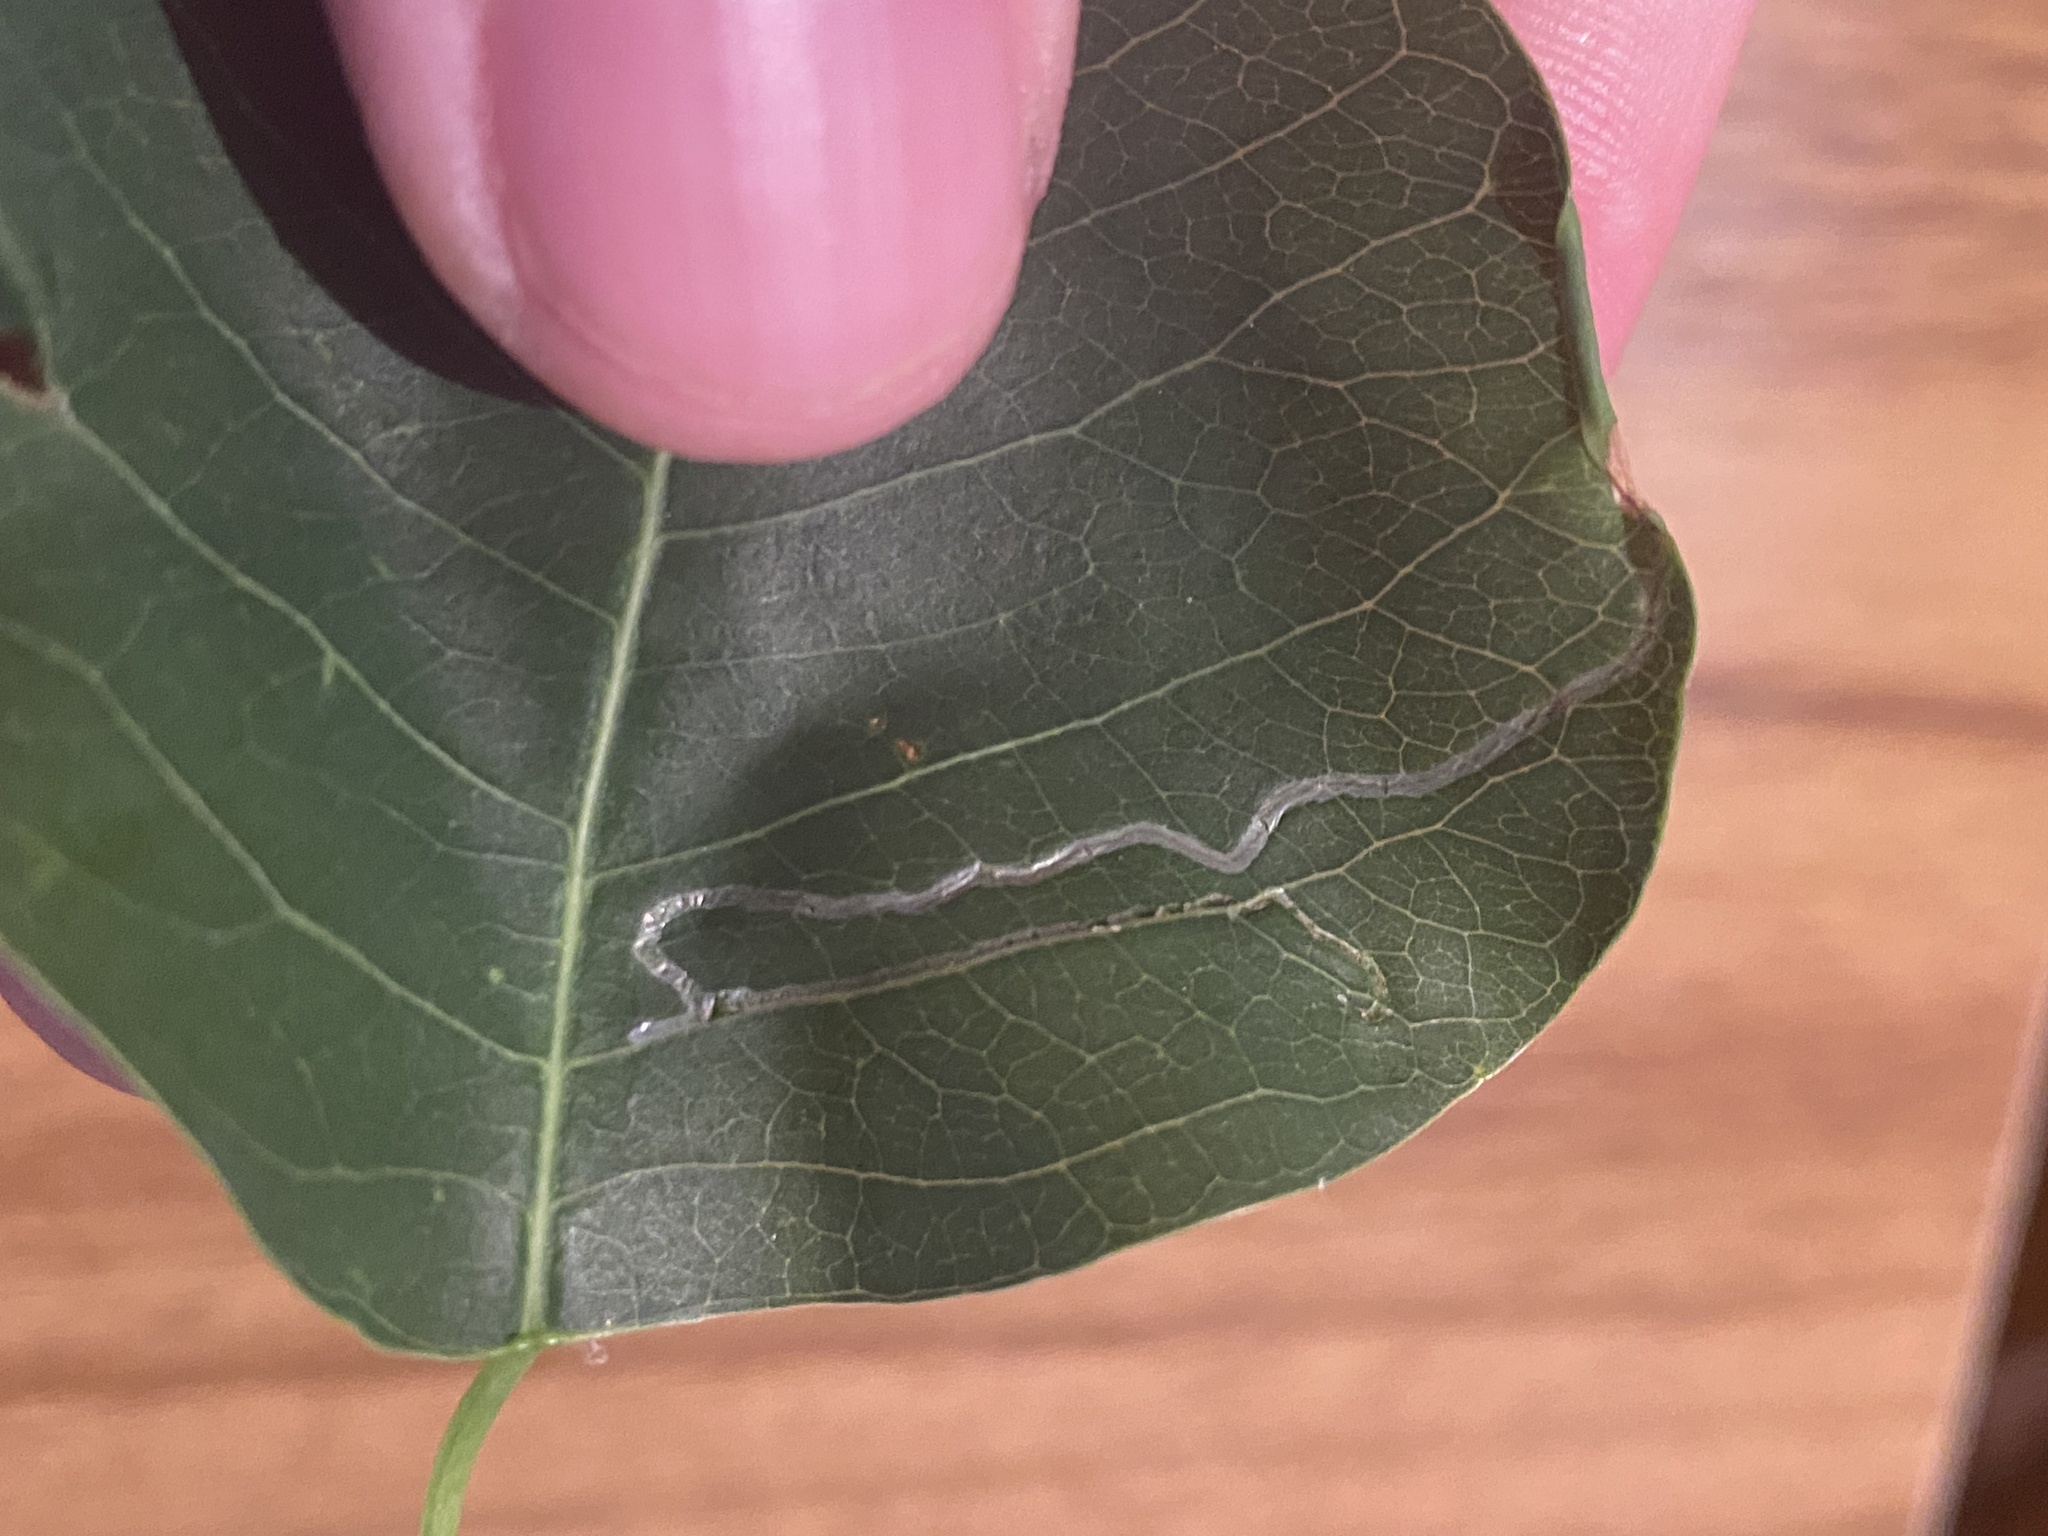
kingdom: Animalia
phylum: Arthropoda
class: Insecta
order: Lepidoptera
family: Gracillariidae
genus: Caloptilia
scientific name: Caloptilia triadicae
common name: Tallow leaf roller
